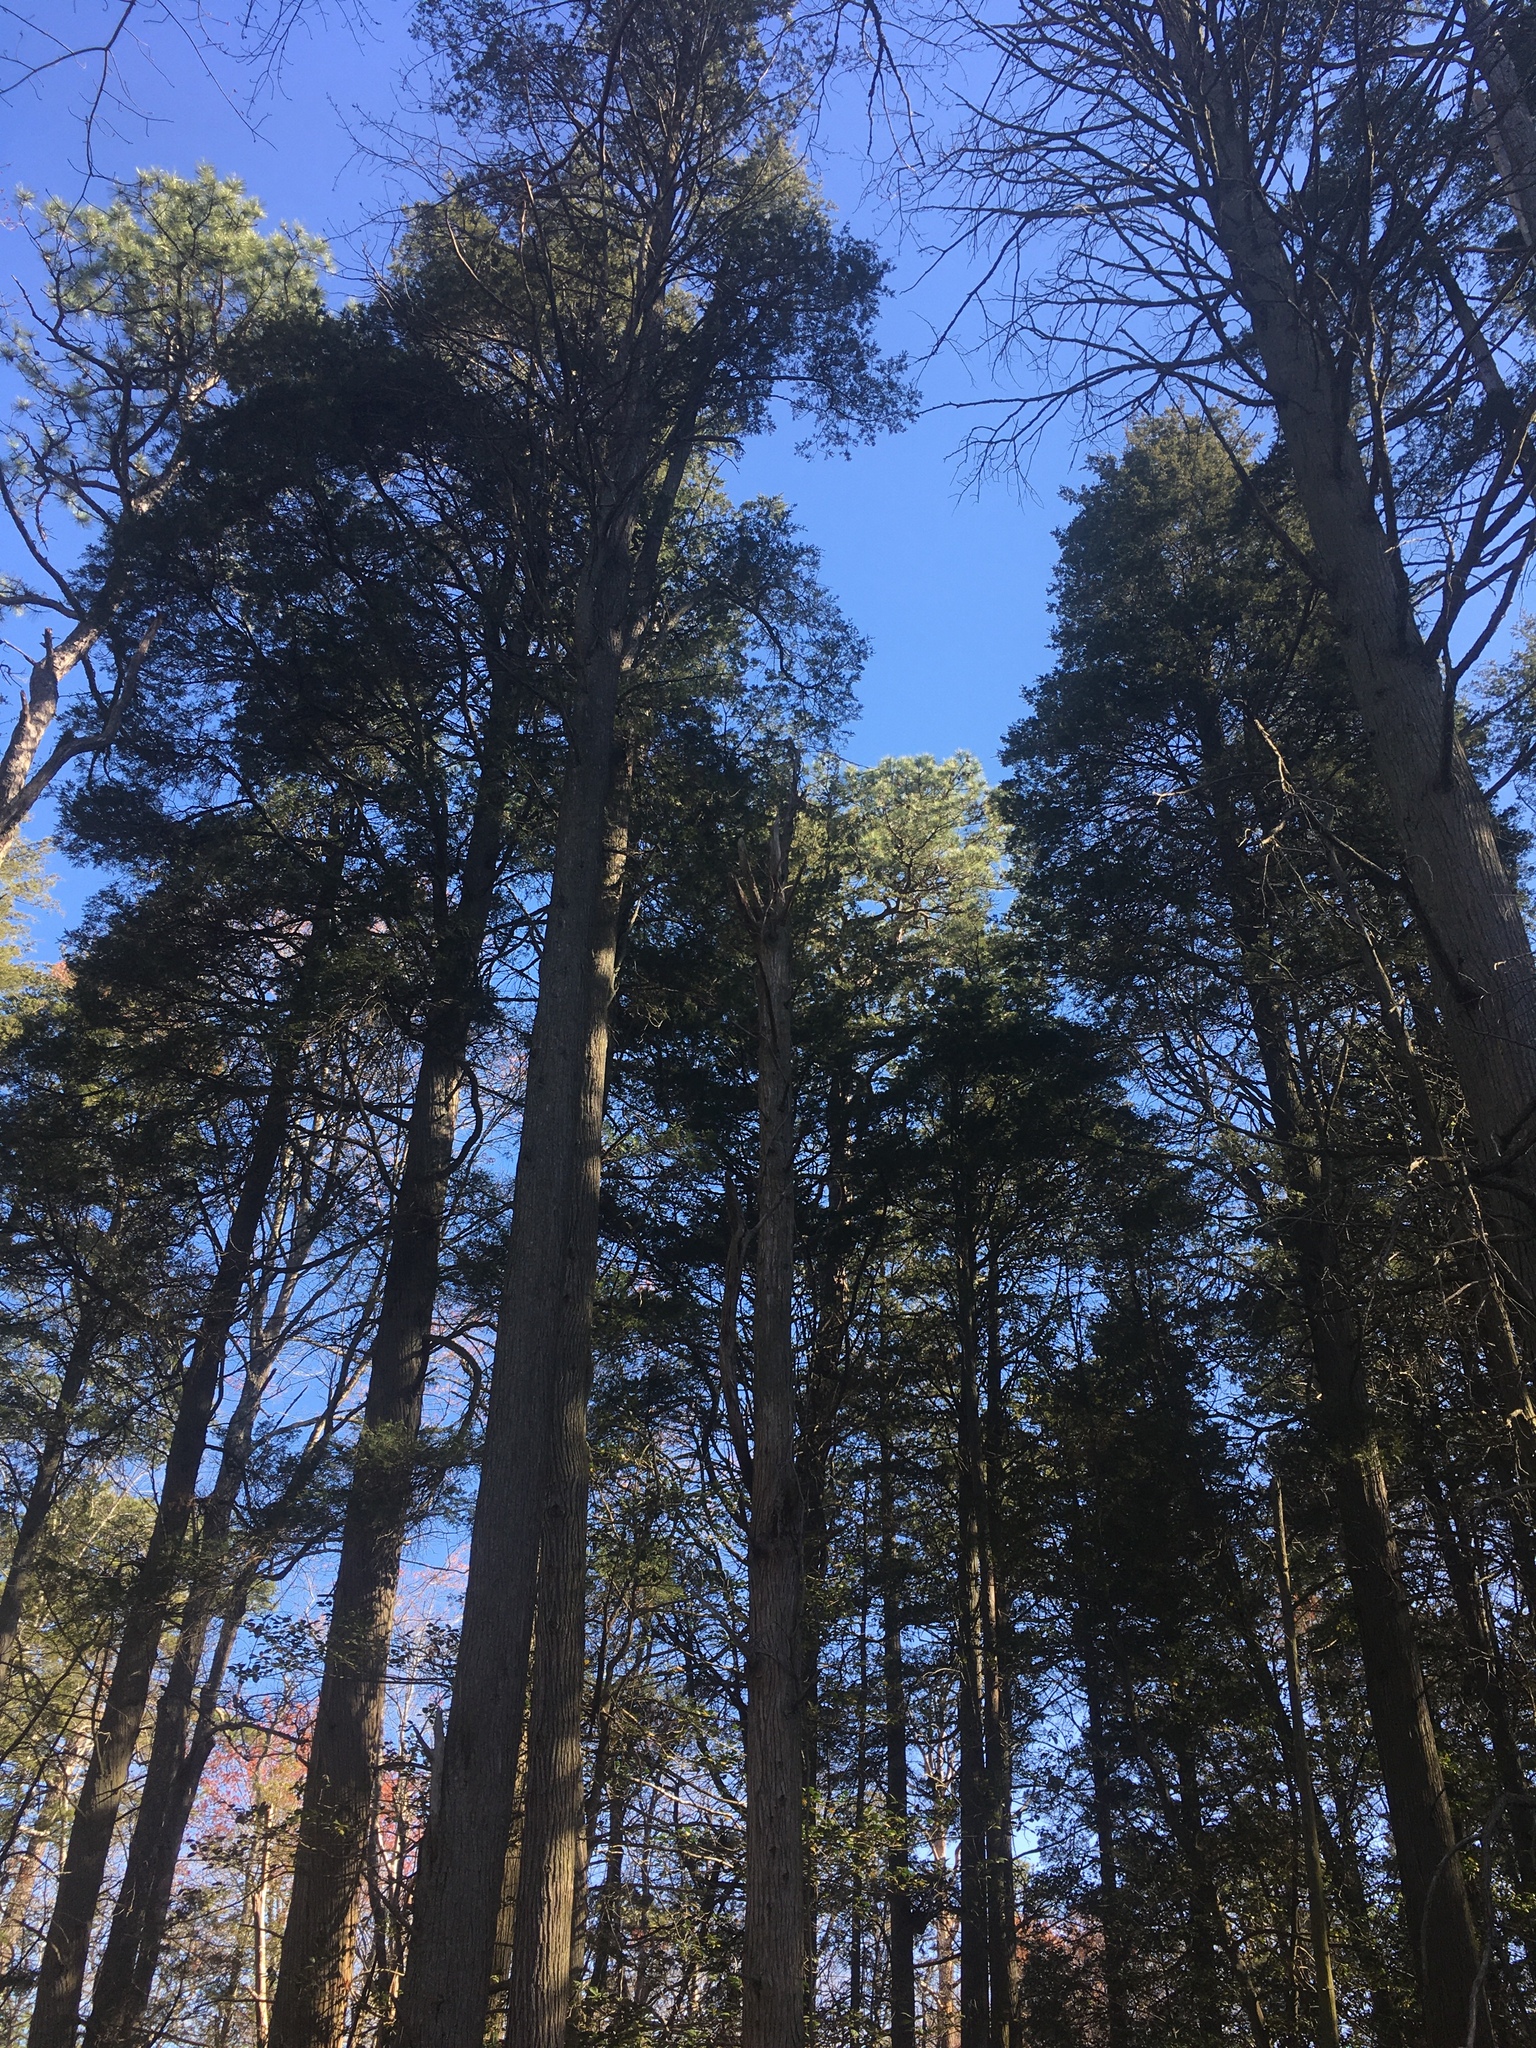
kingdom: Plantae
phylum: Tracheophyta
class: Pinopsida
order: Pinales
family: Cupressaceae
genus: Chamaecyparis
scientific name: Chamaecyparis thyoides
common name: Atlantic white cedar
